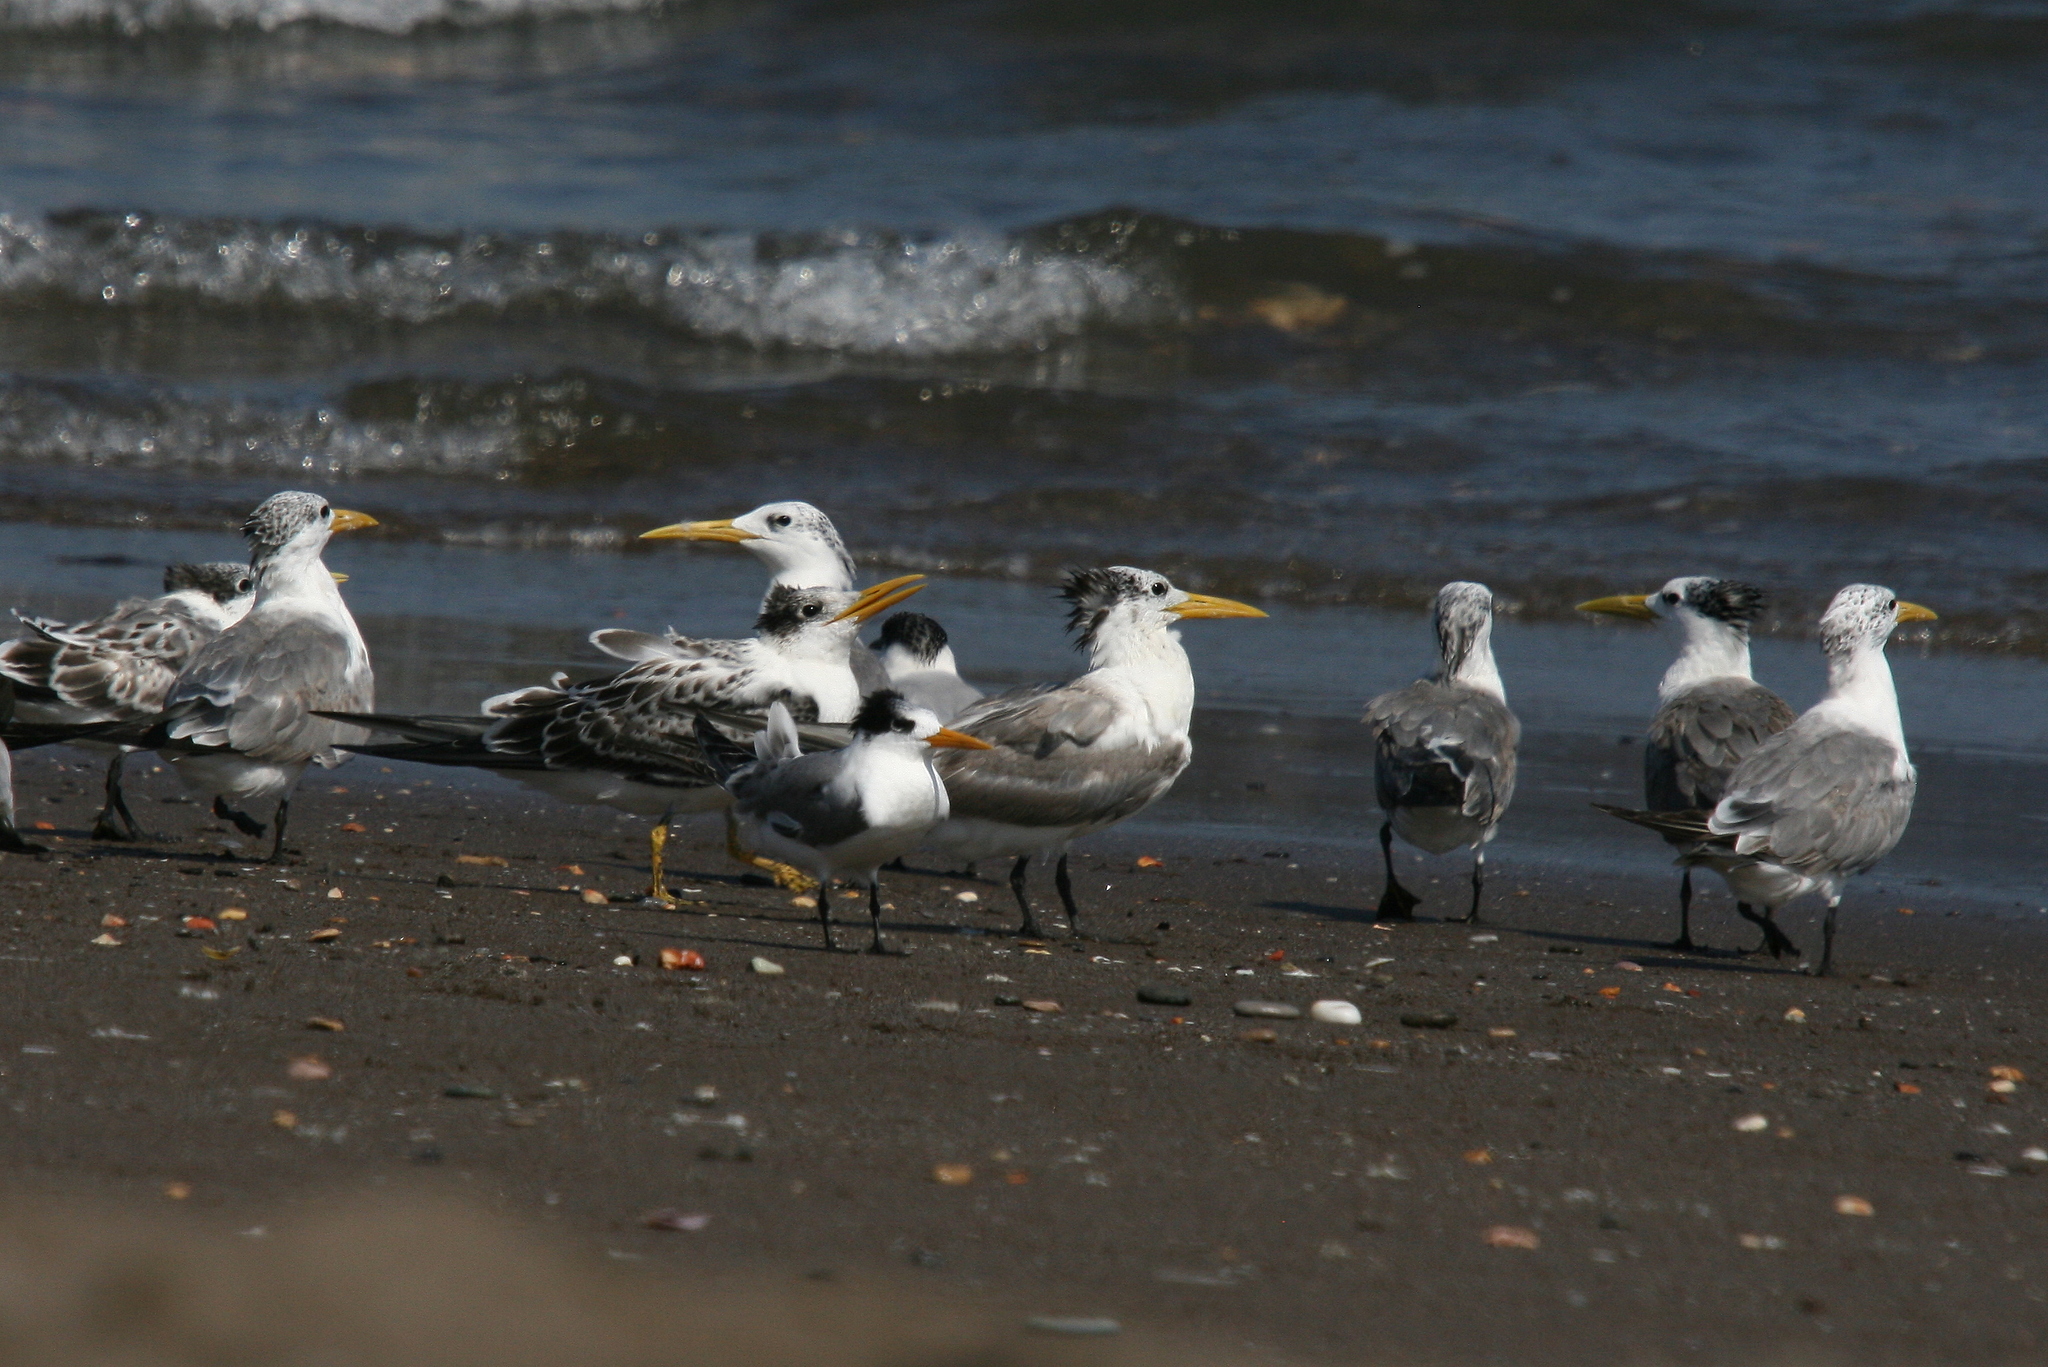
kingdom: Animalia
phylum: Chordata
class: Aves
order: Charadriiformes
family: Laridae
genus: Thalasseus
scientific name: Thalasseus bergii
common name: Greater crested tern
